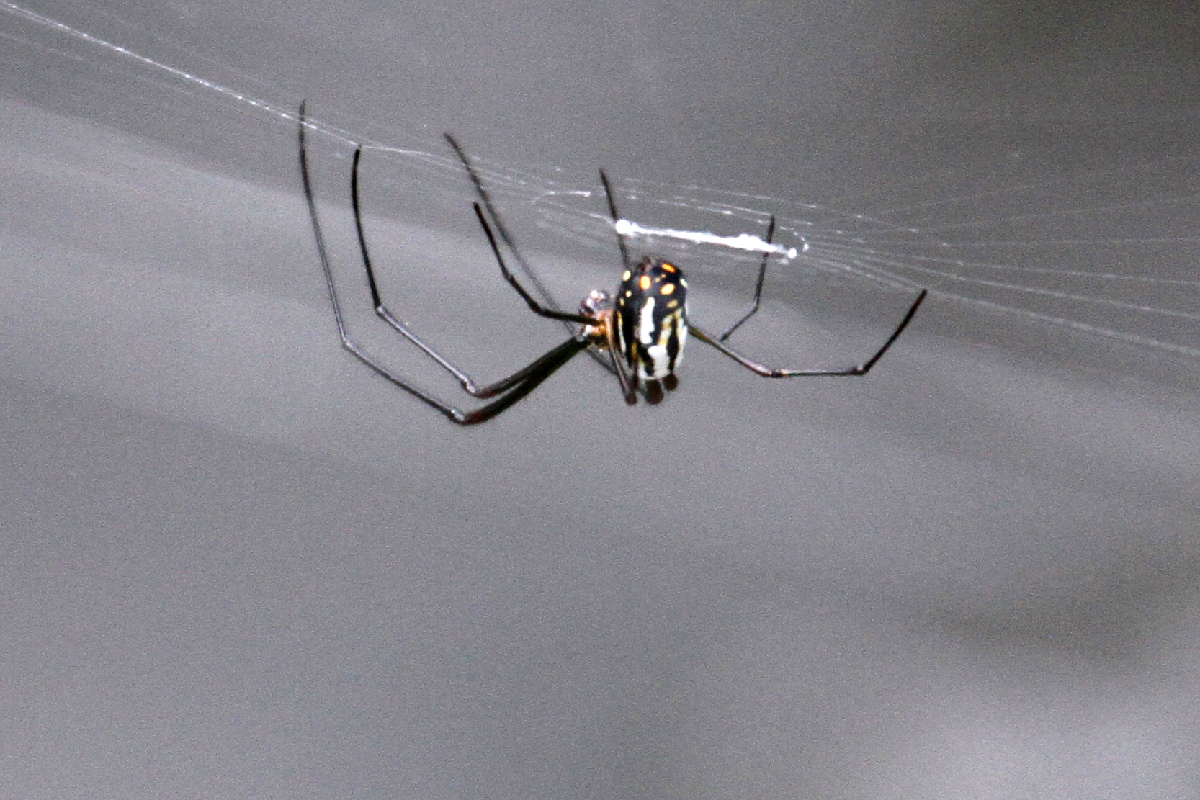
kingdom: Animalia
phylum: Arthropoda
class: Arachnida
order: Araneae
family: Tetragnathidae
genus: Leucauge
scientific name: Leucauge argyra
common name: Longjawed orb weavers
